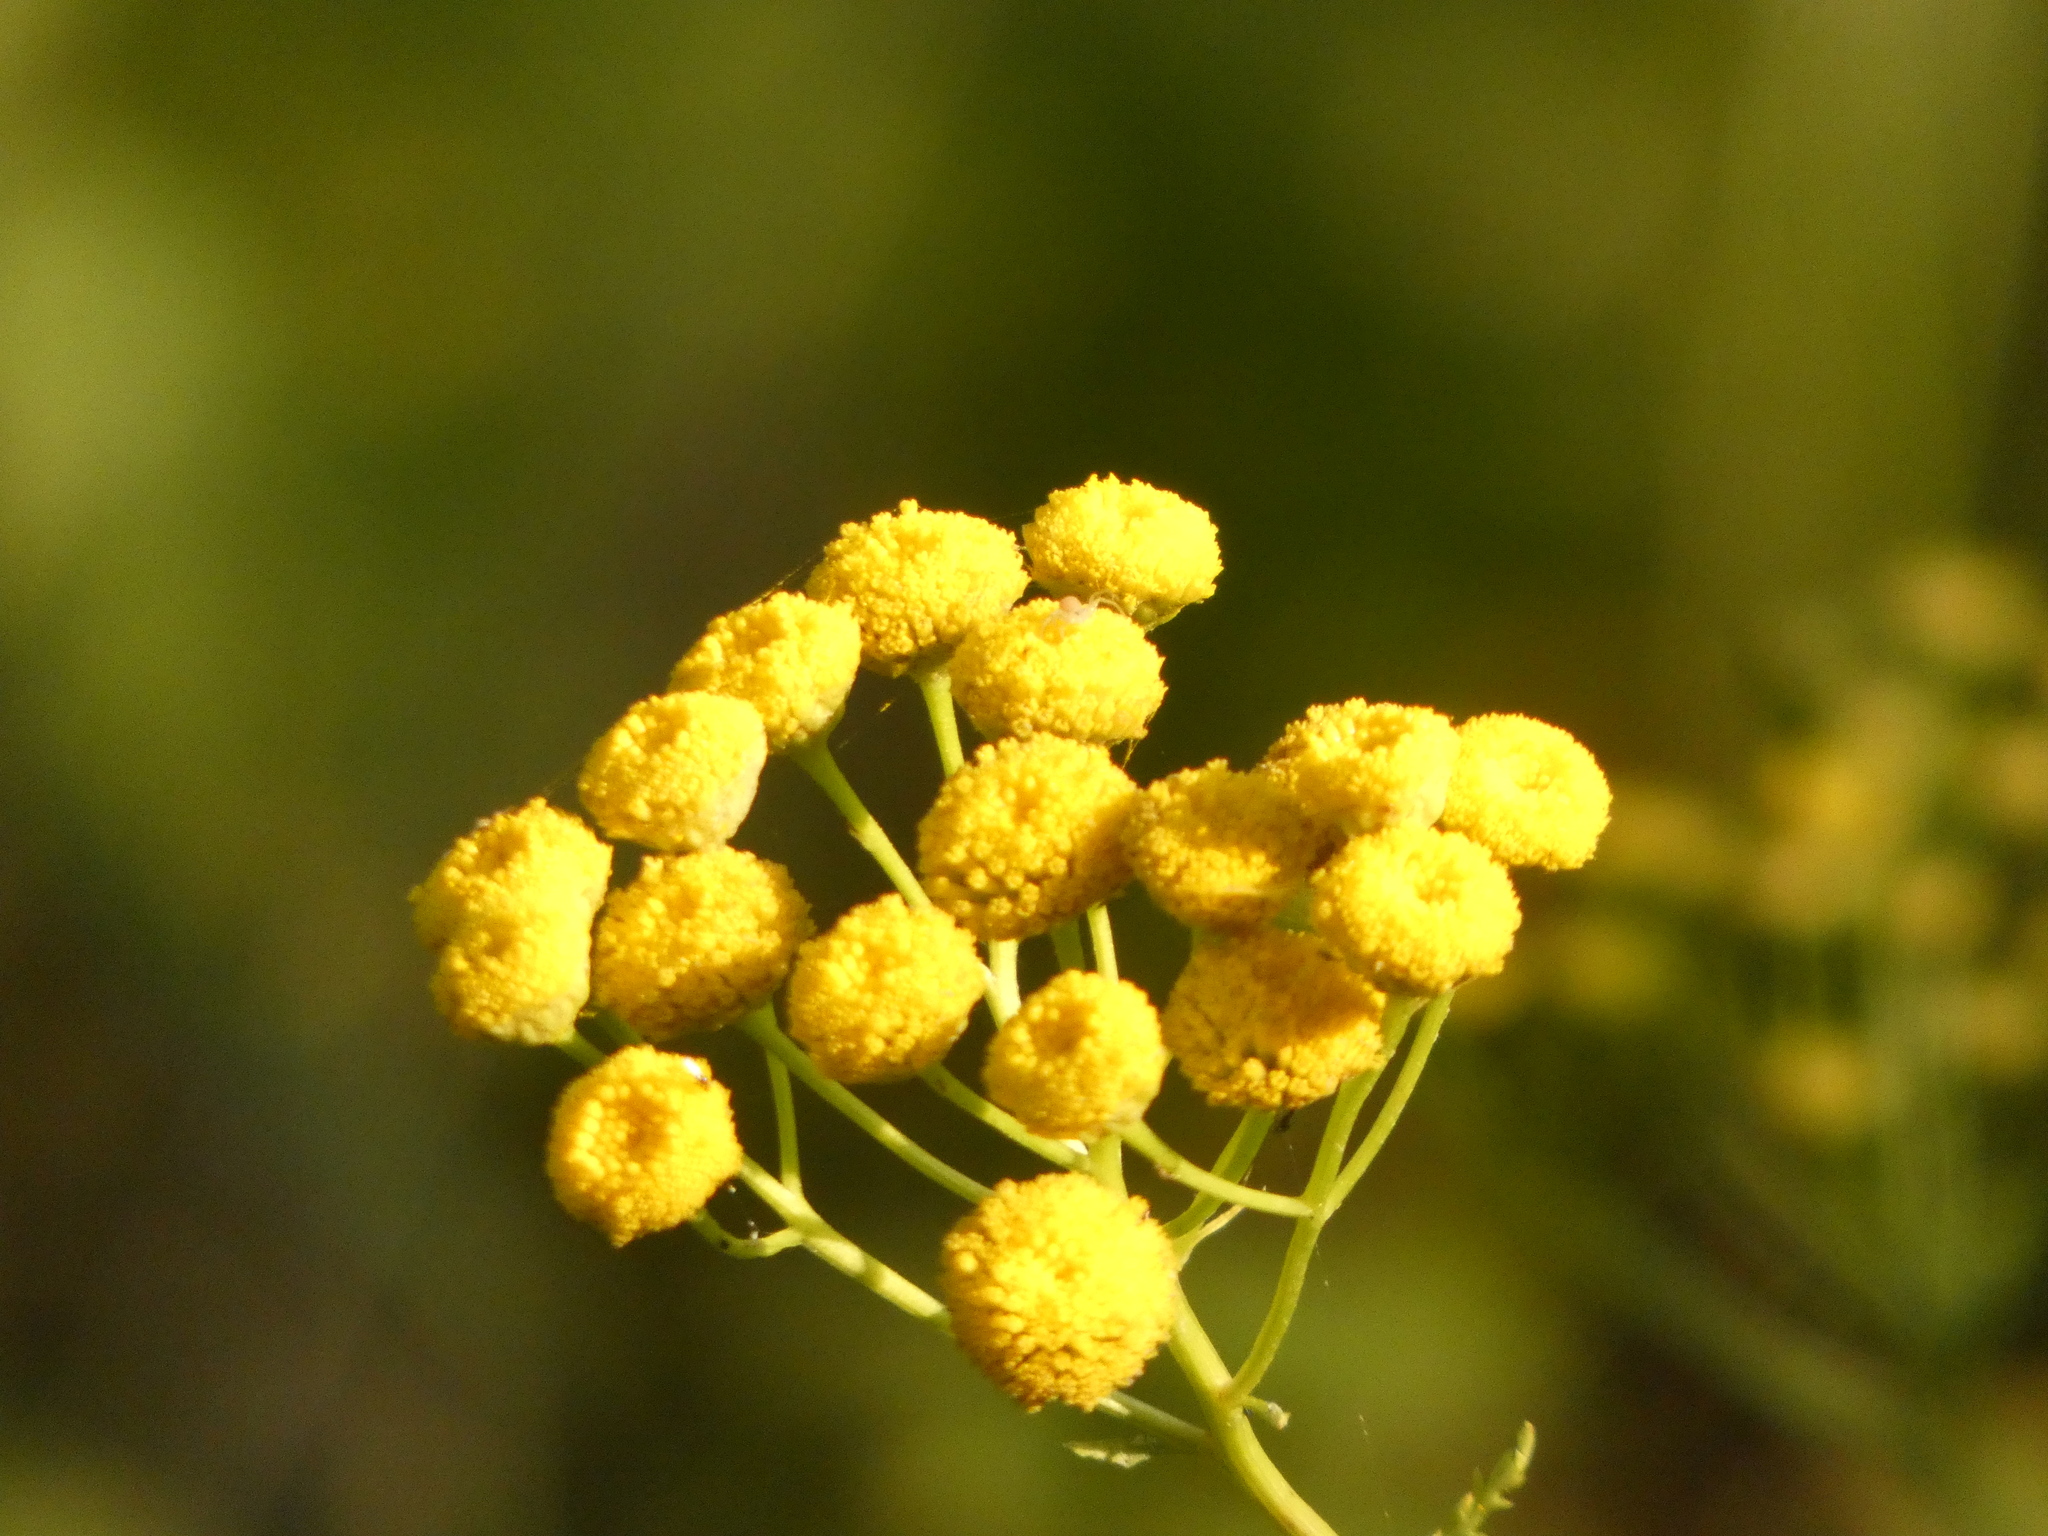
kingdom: Plantae
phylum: Tracheophyta
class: Magnoliopsida
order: Asterales
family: Asteraceae
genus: Tanacetum
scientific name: Tanacetum vulgare
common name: Common tansy
